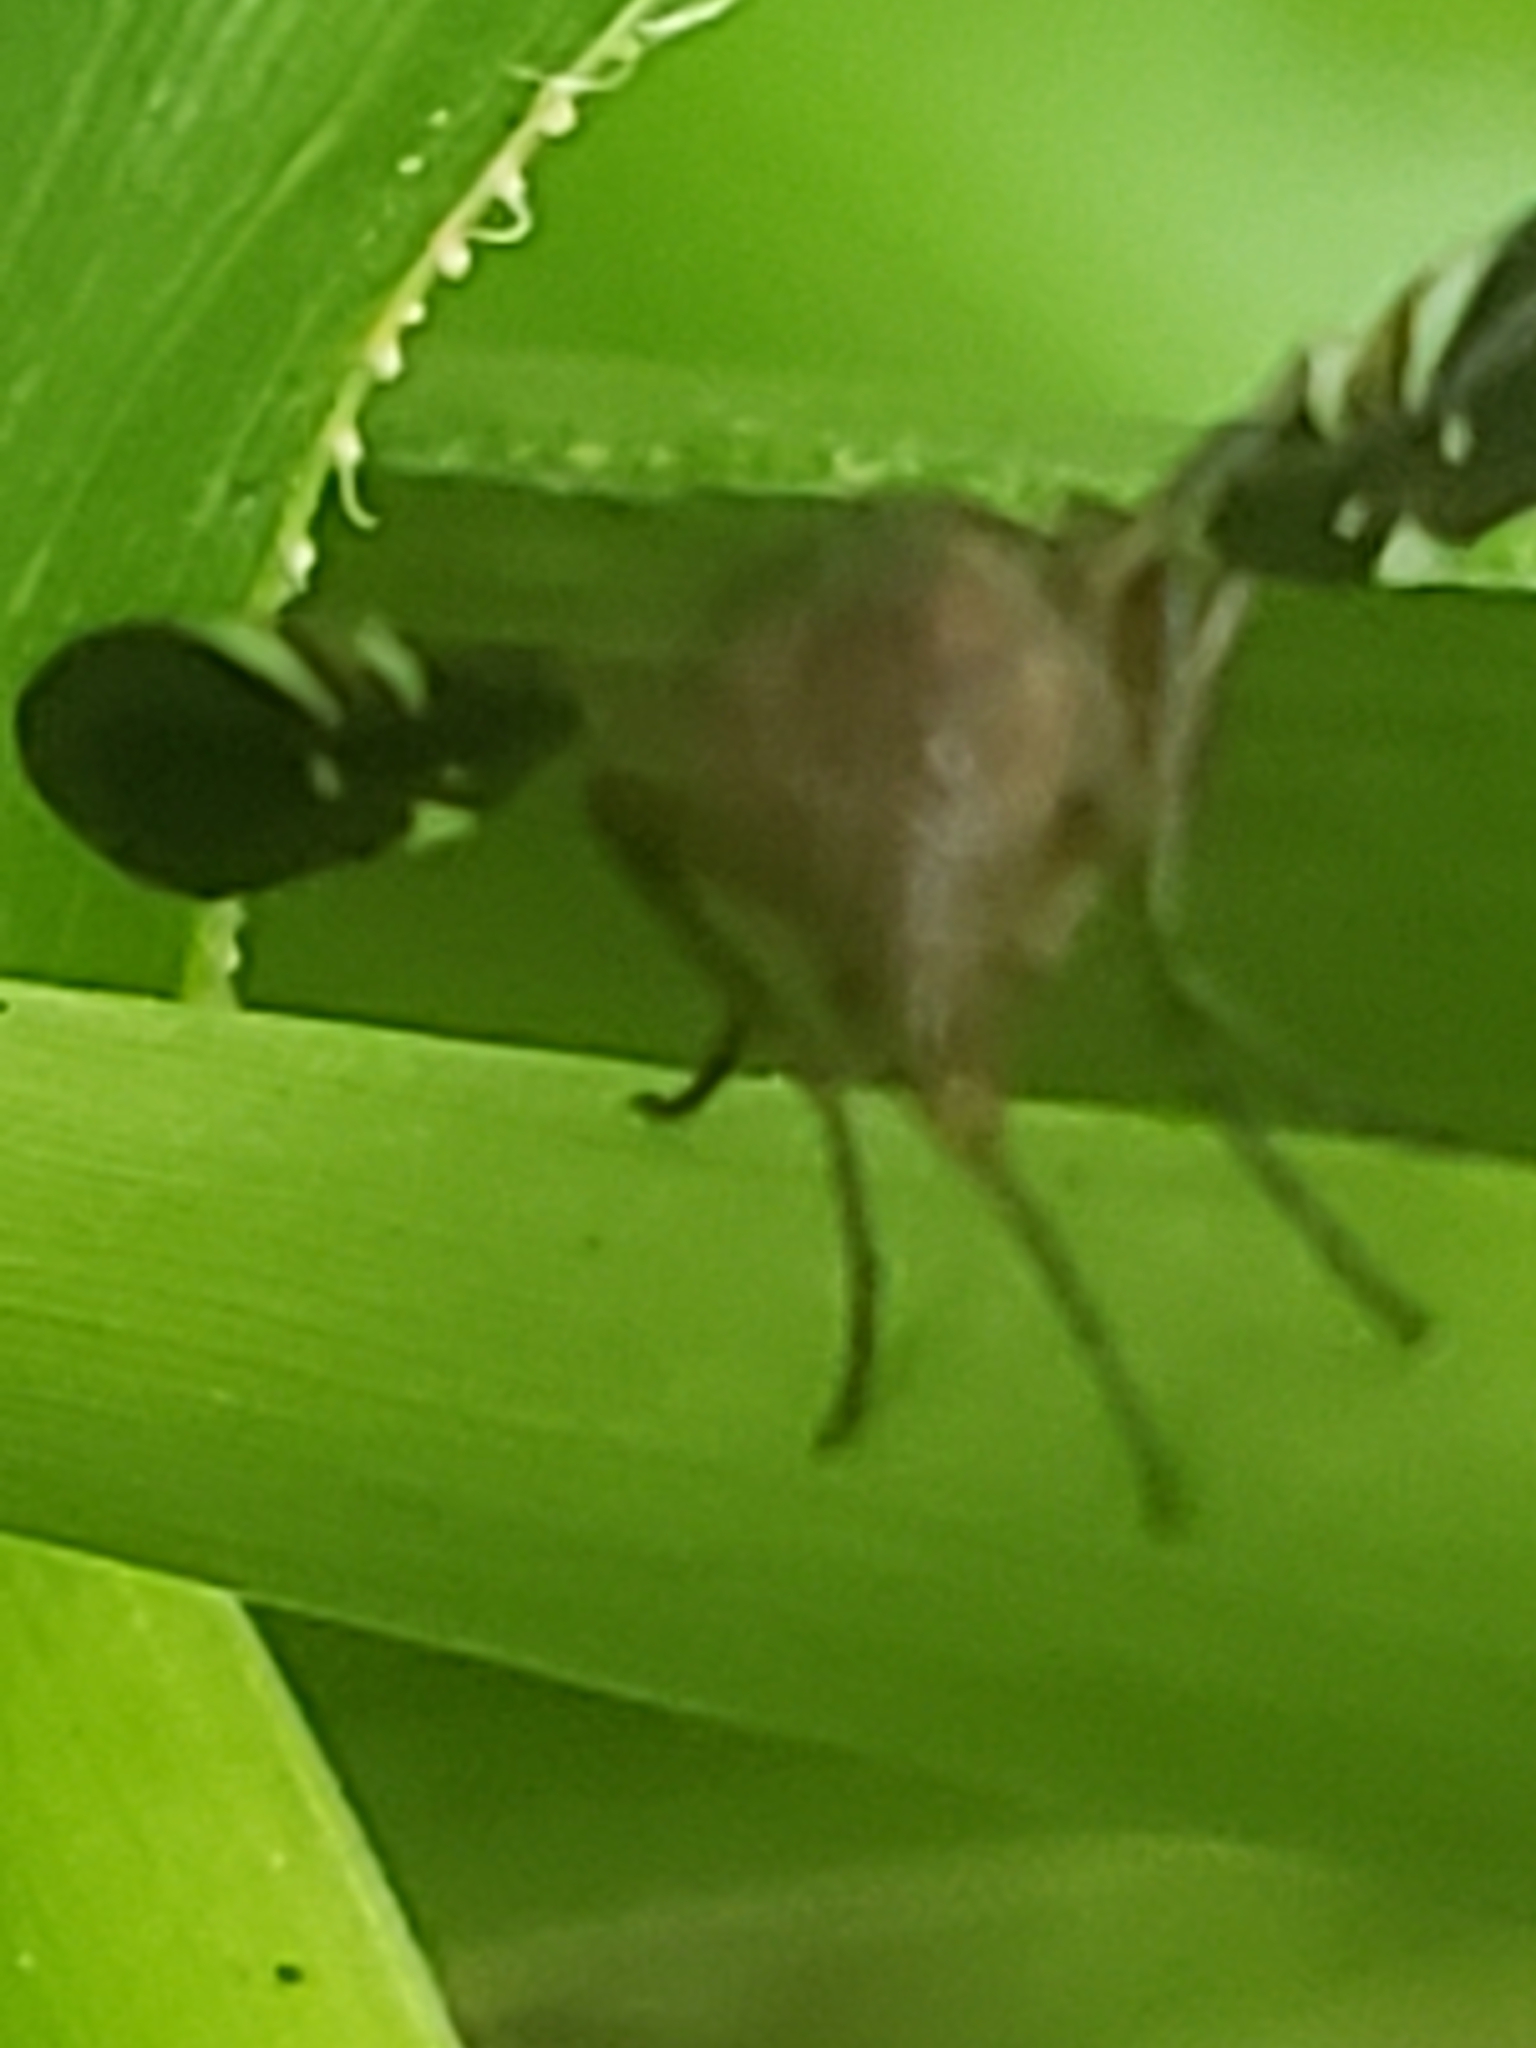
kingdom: Animalia
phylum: Arthropoda
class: Insecta
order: Diptera
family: Ulidiidae
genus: Delphinia
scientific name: Delphinia picta
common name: Common picture-winged fly
